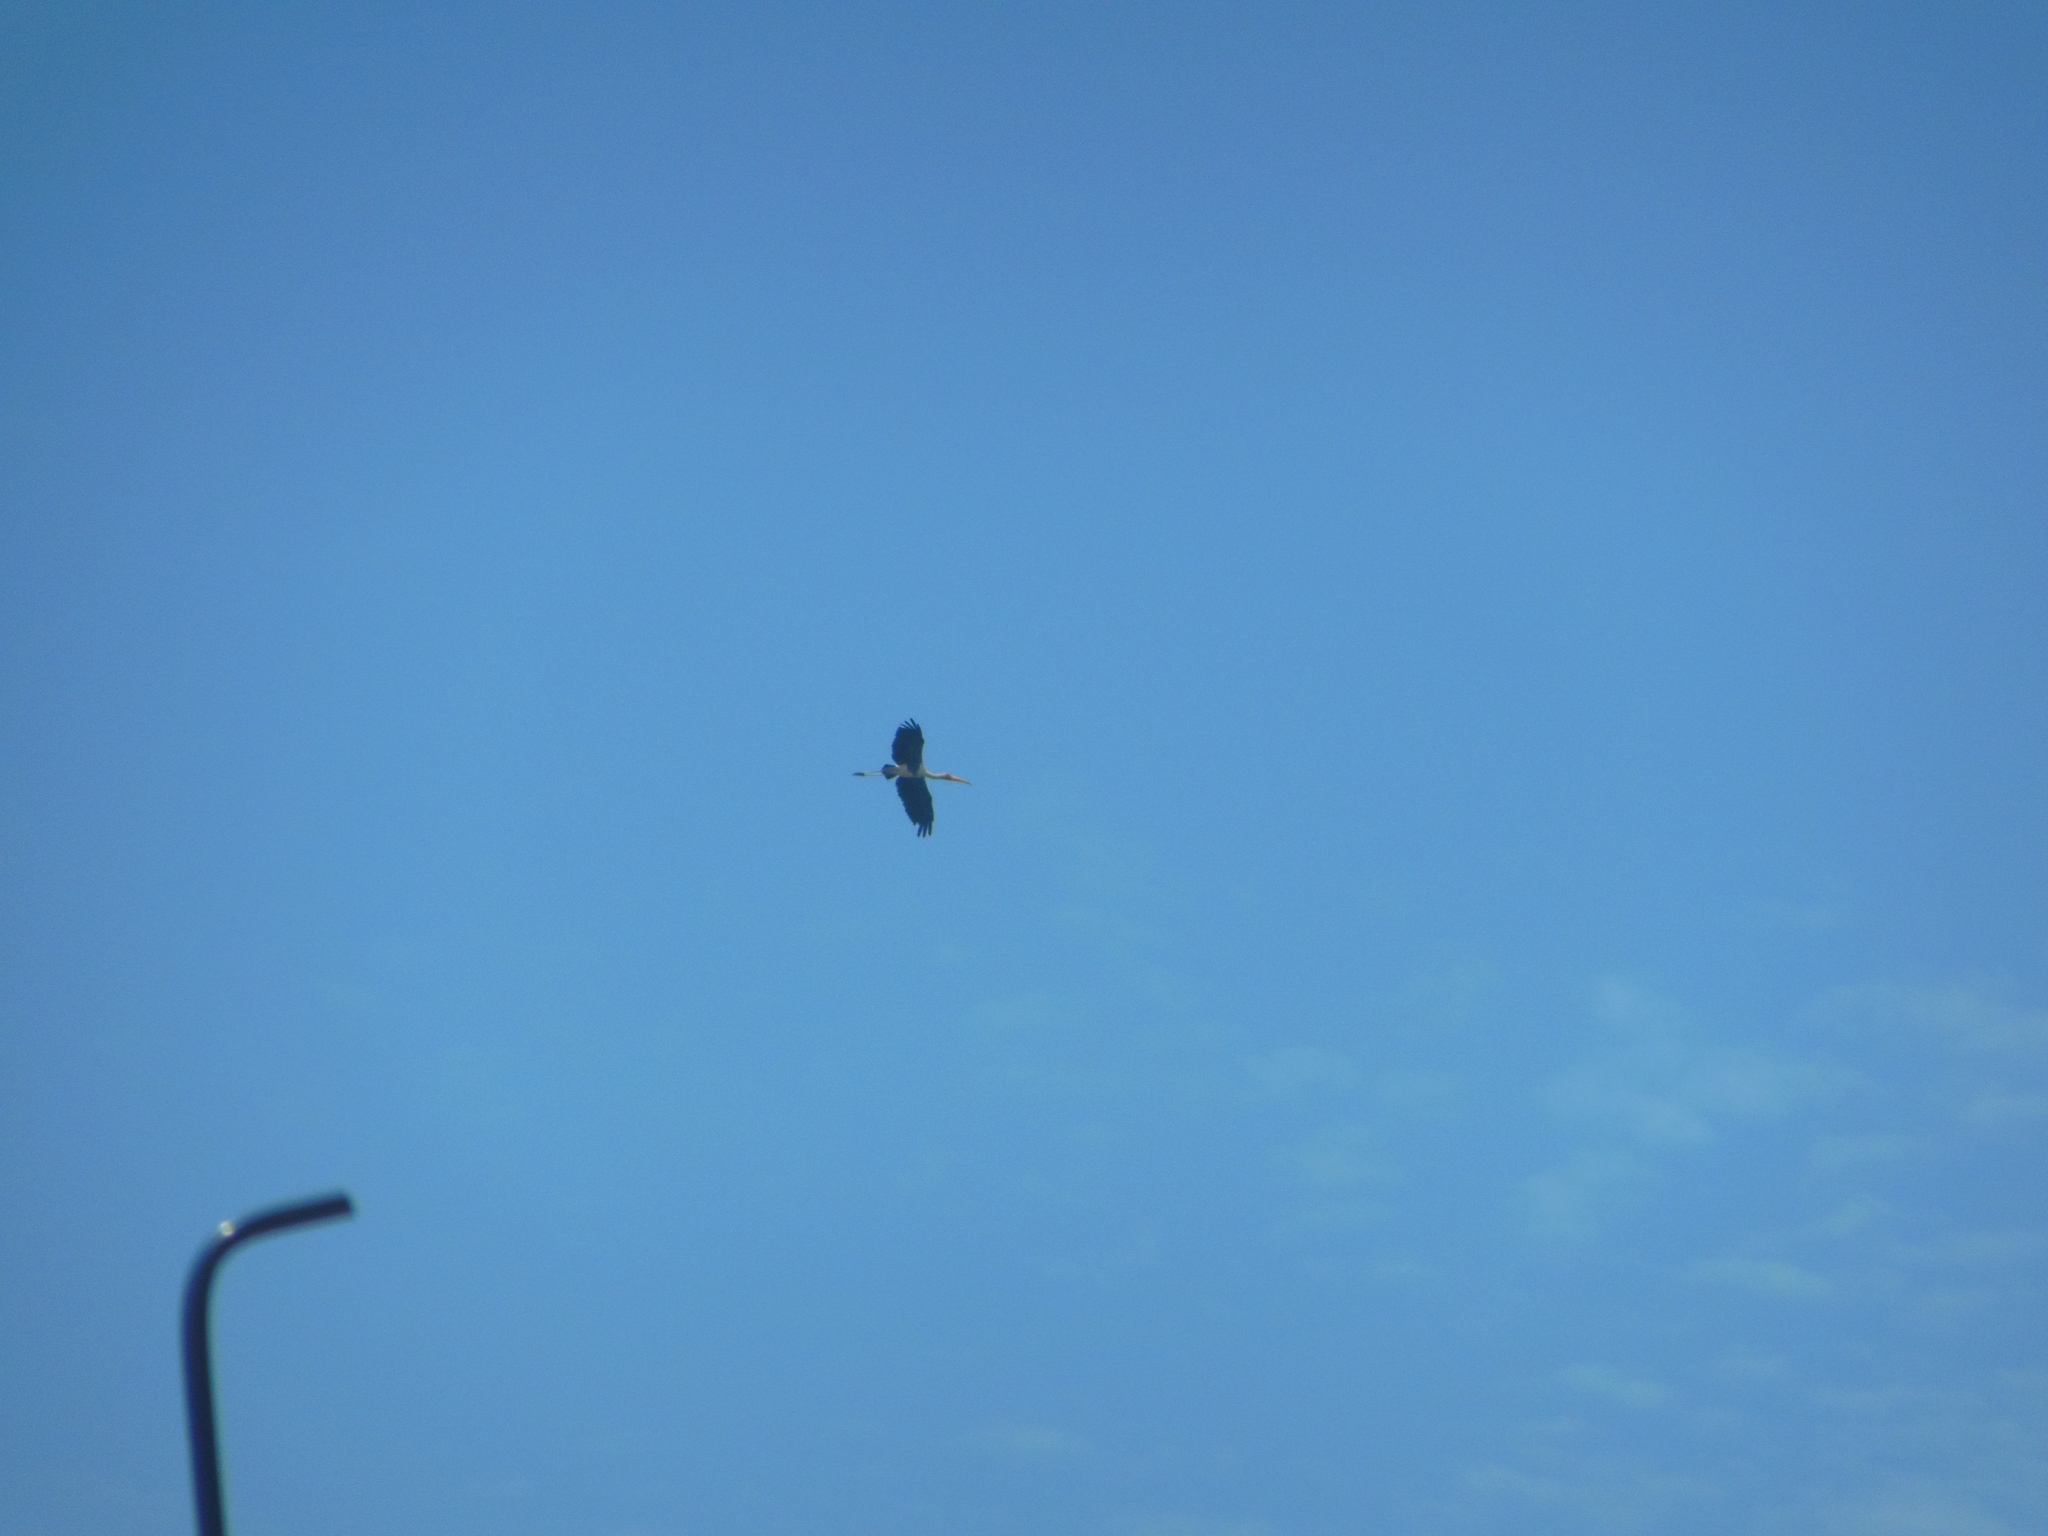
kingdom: Animalia
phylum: Chordata
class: Aves
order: Ciconiiformes
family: Ciconiidae
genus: Mycteria
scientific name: Mycteria leucocephala
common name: Painted stork
